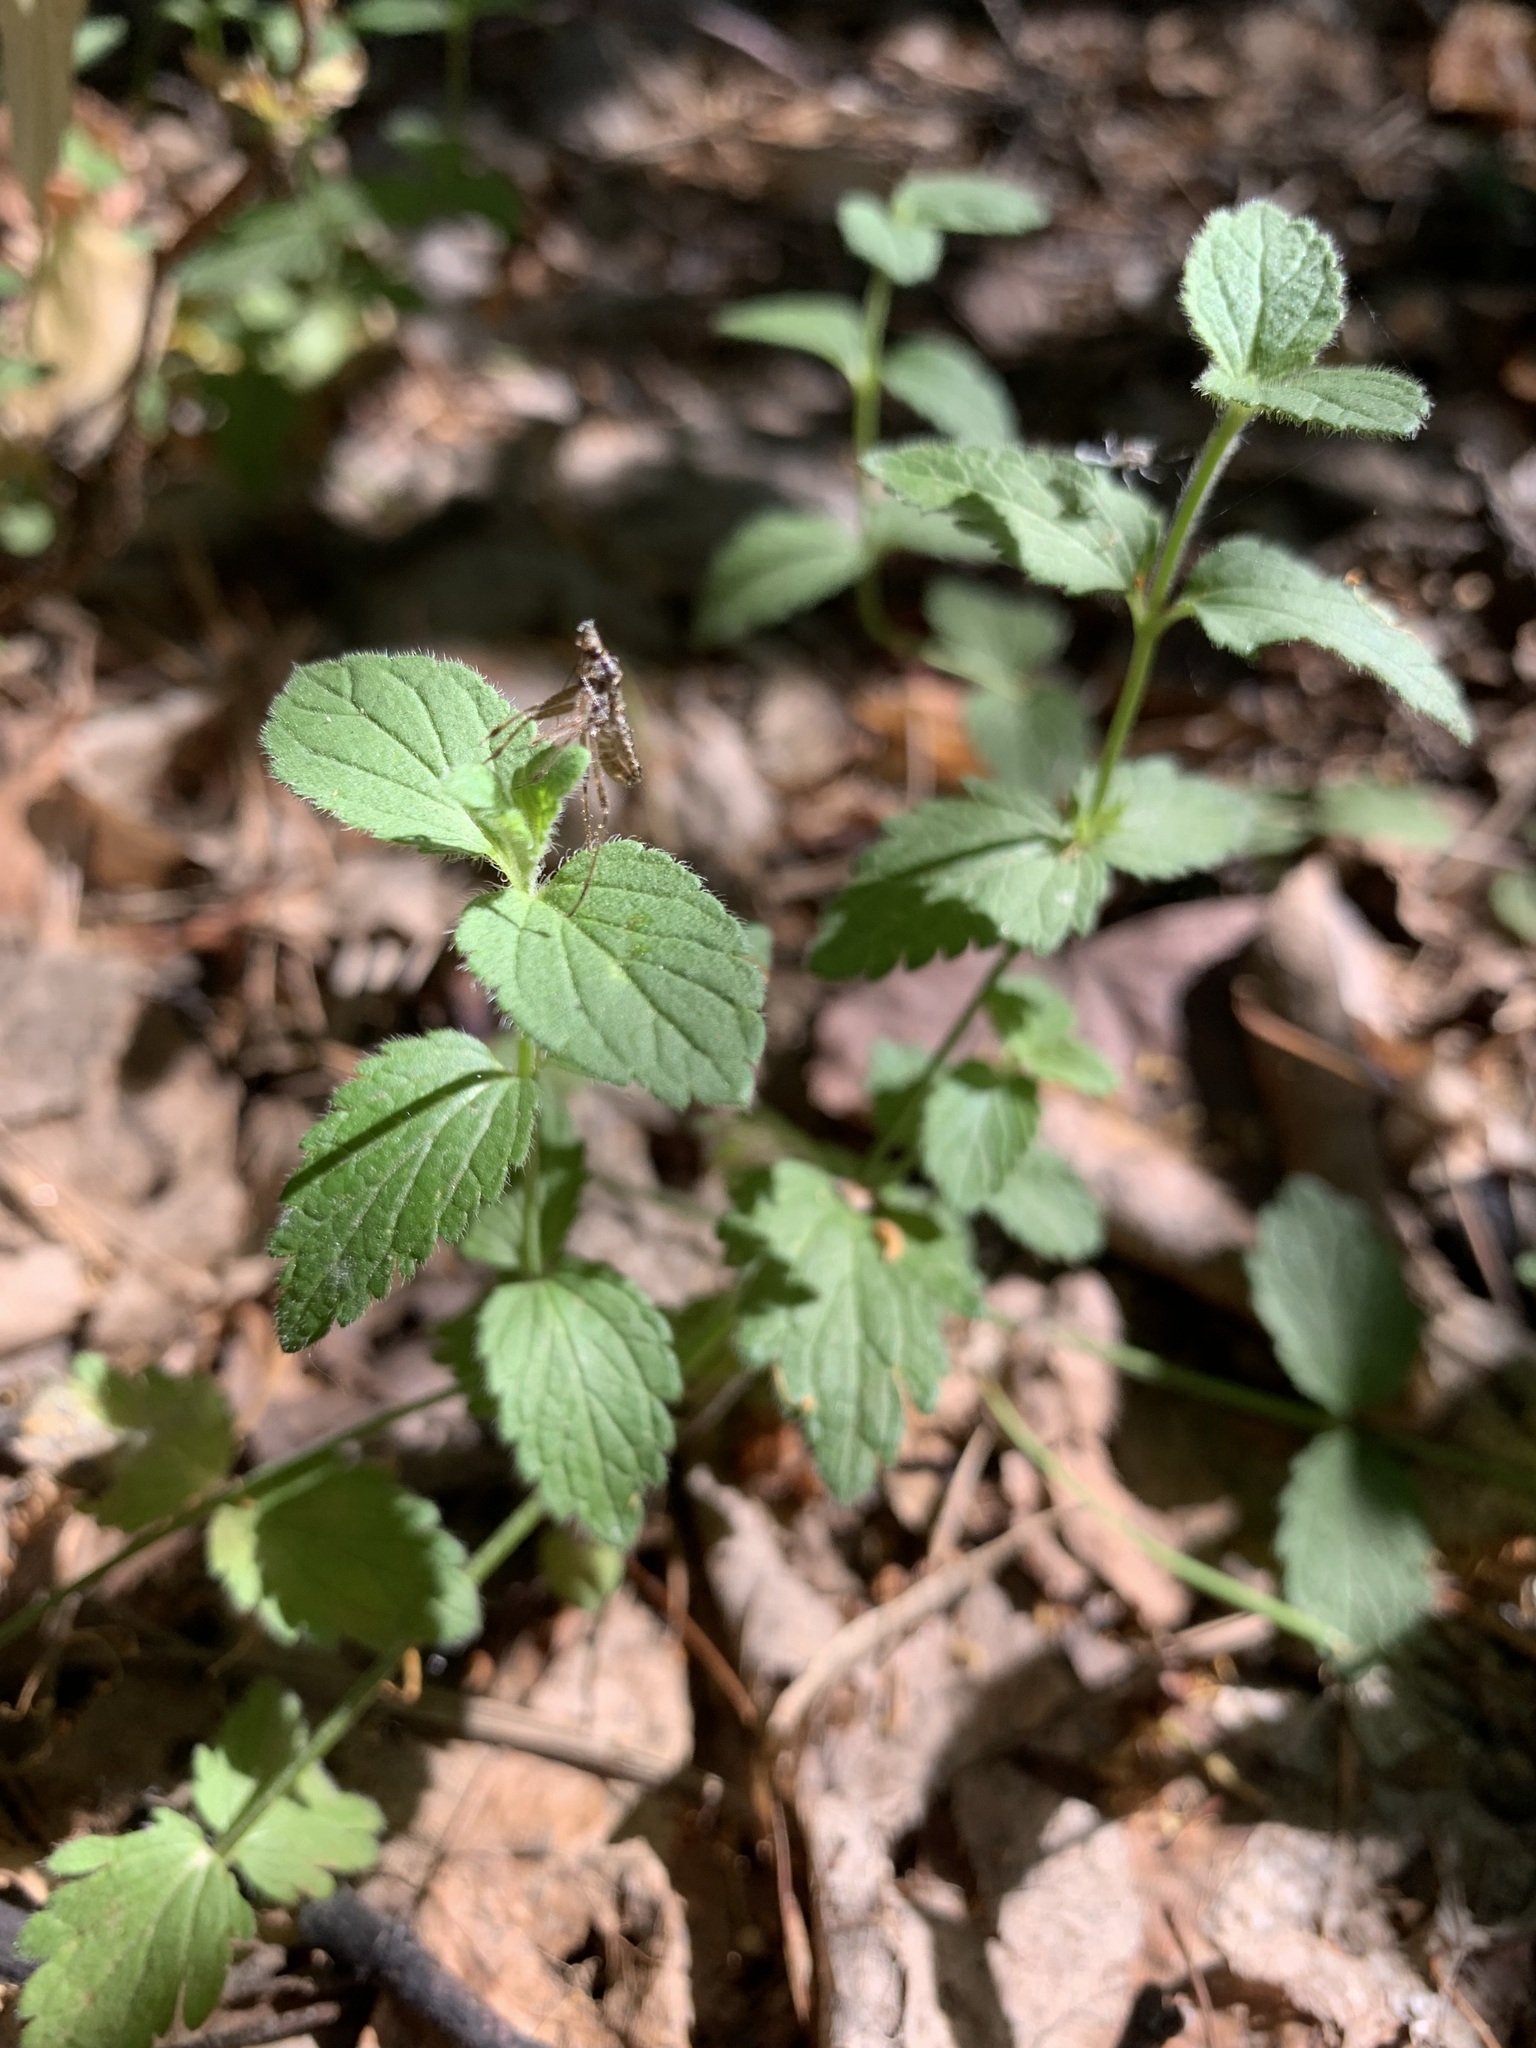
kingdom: Plantae
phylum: Tracheophyta
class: Magnoliopsida
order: Lamiales
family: Plantaginaceae
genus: Veronica
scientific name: Veronica chamaedrys
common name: Germander speedwell
